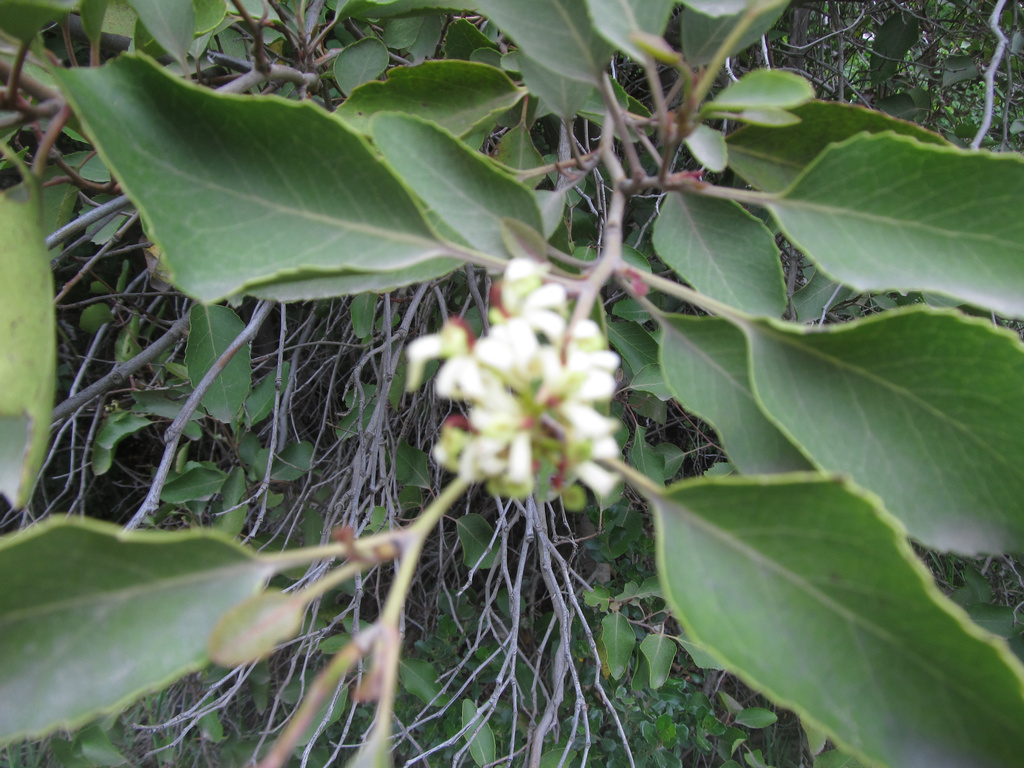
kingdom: Plantae
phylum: Tracheophyta
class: Magnoliopsida
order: Proteales
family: Proteaceae
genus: Lomatia
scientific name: Lomatia hirsuta
